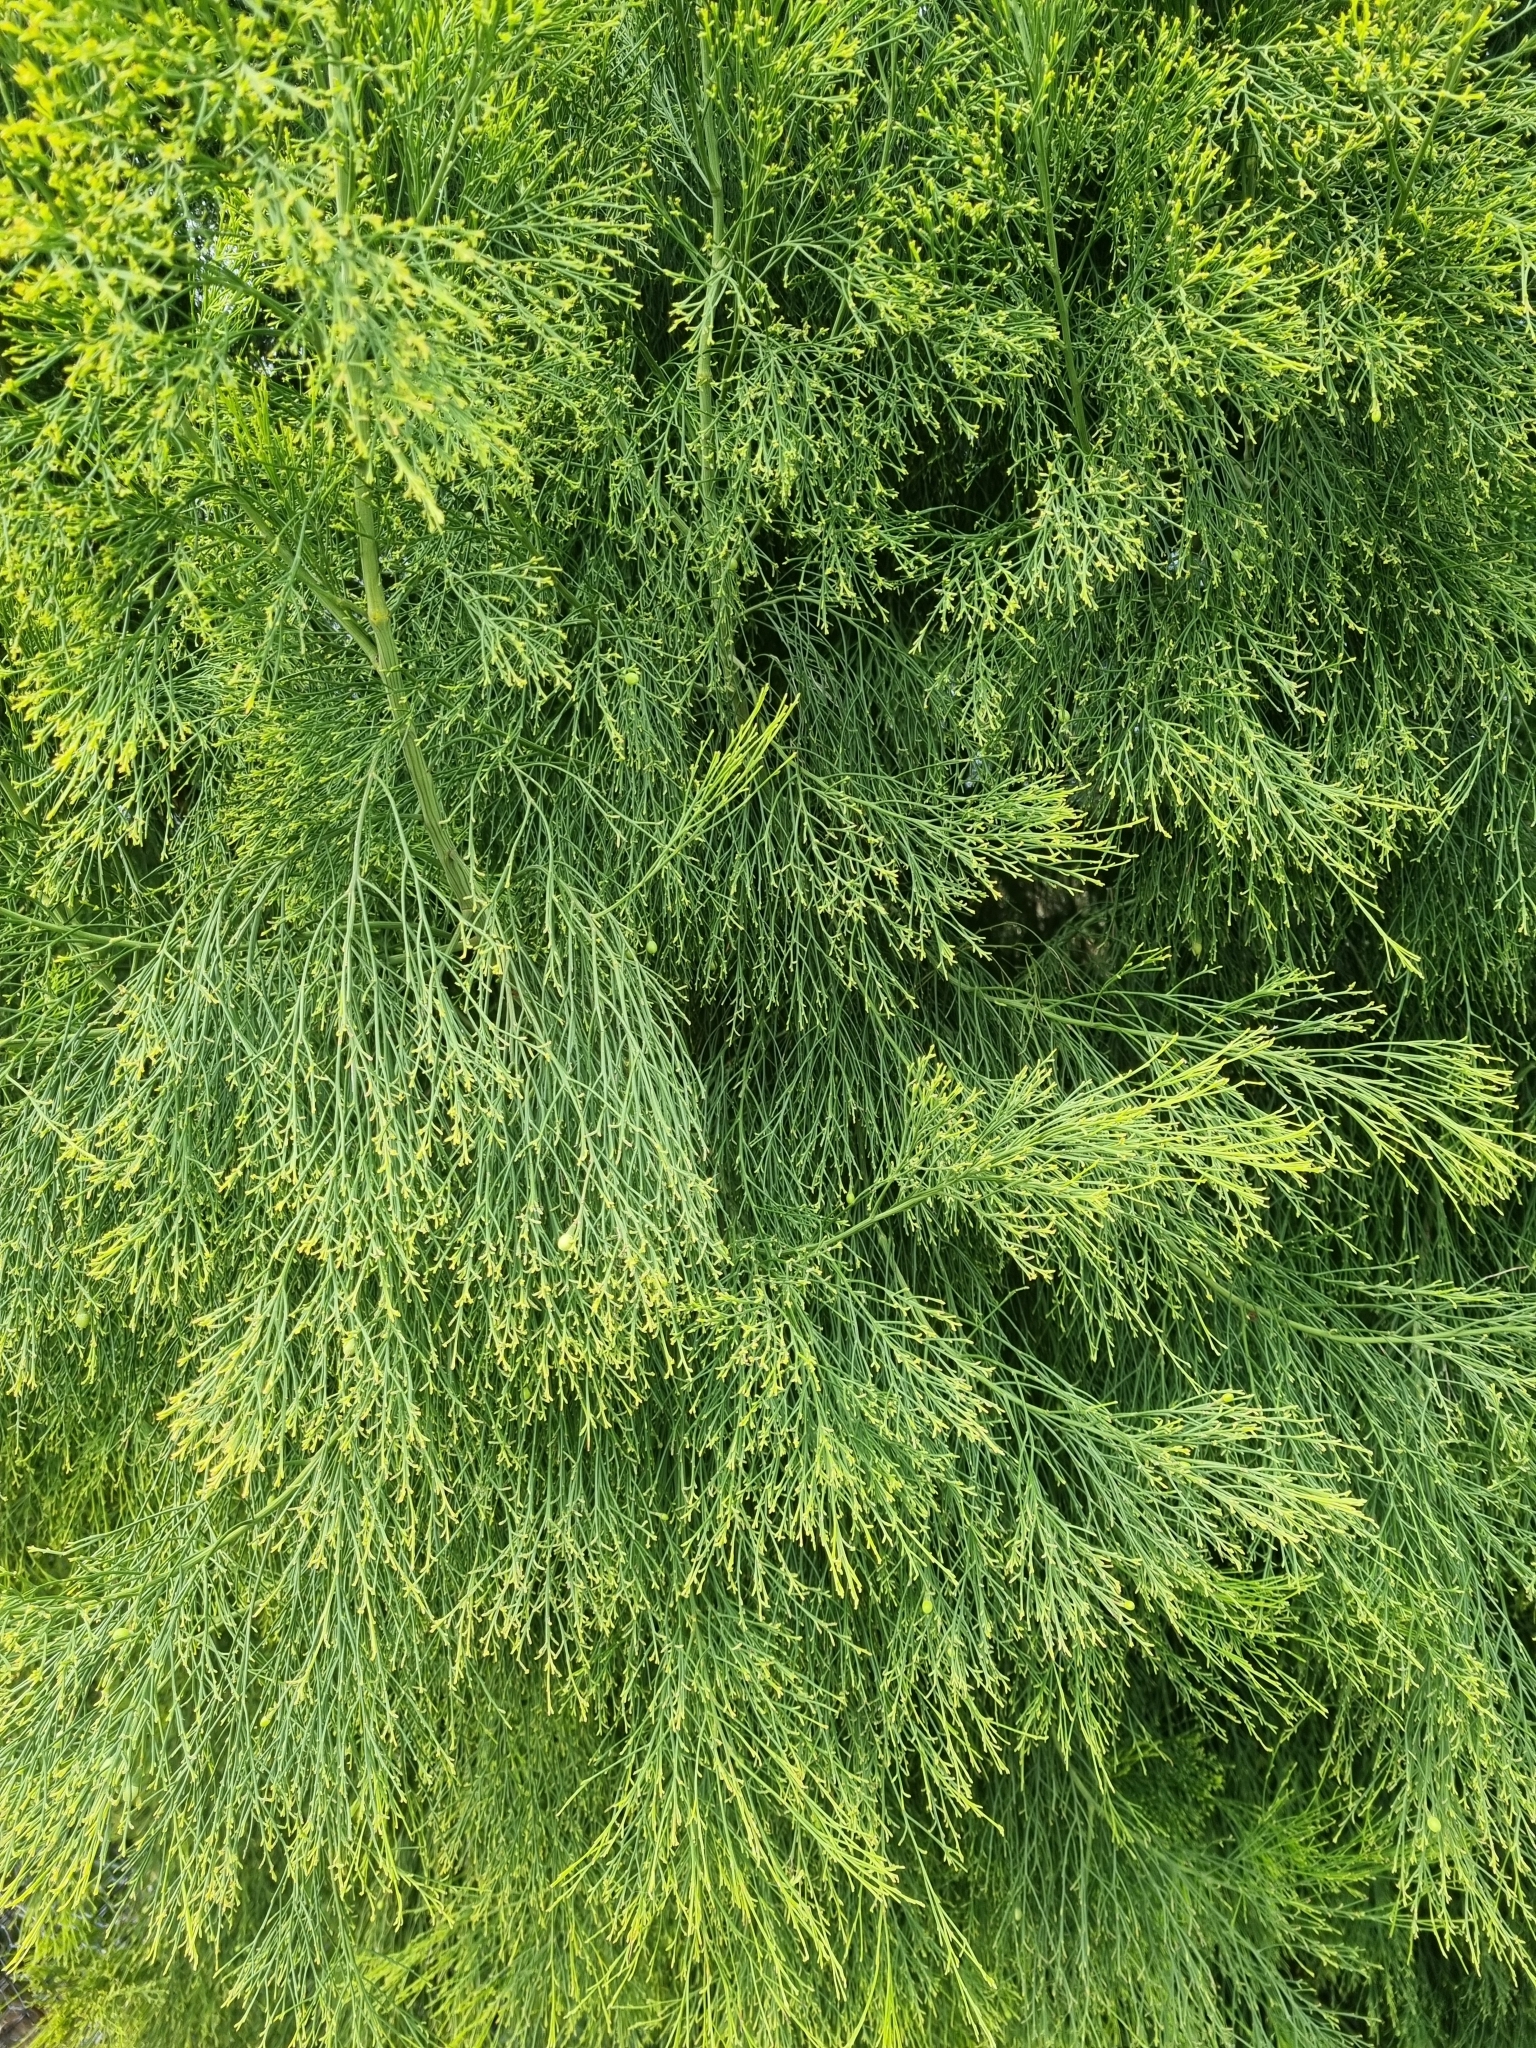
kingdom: Plantae
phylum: Tracheophyta
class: Magnoliopsida
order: Santalales
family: Santalaceae
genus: Exocarpos
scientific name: Exocarpos cupressiformis
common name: Cherry ballart
